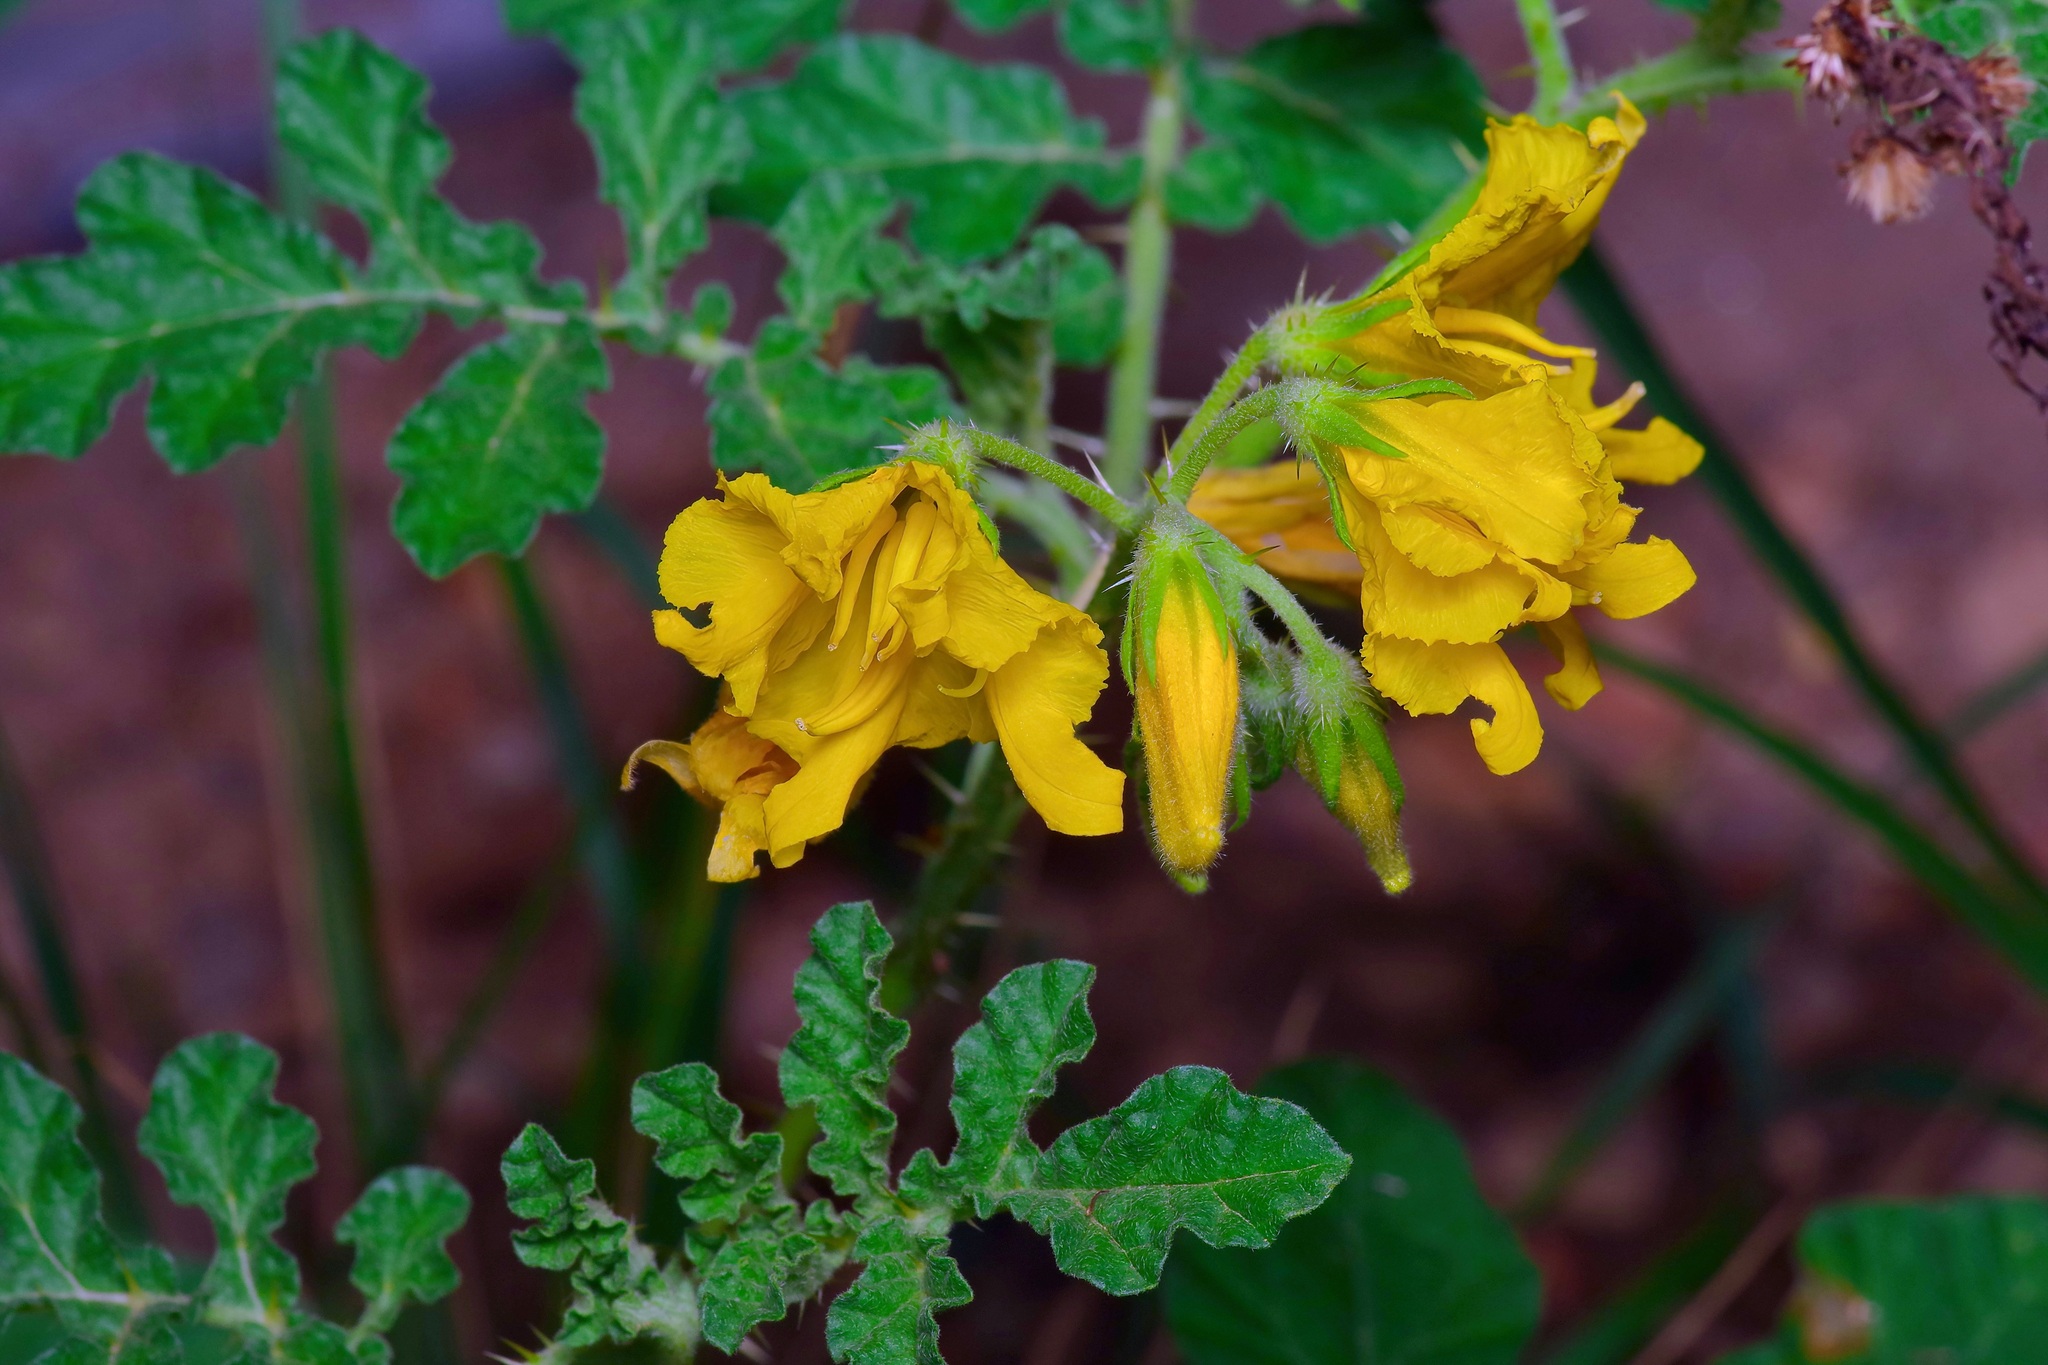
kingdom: Plantae
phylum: Tracheophyta
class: Magnoliopsida
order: Solanales
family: Solanaceae
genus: Solanum
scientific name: Solanum angustifolium
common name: Buffalobur nightshade
